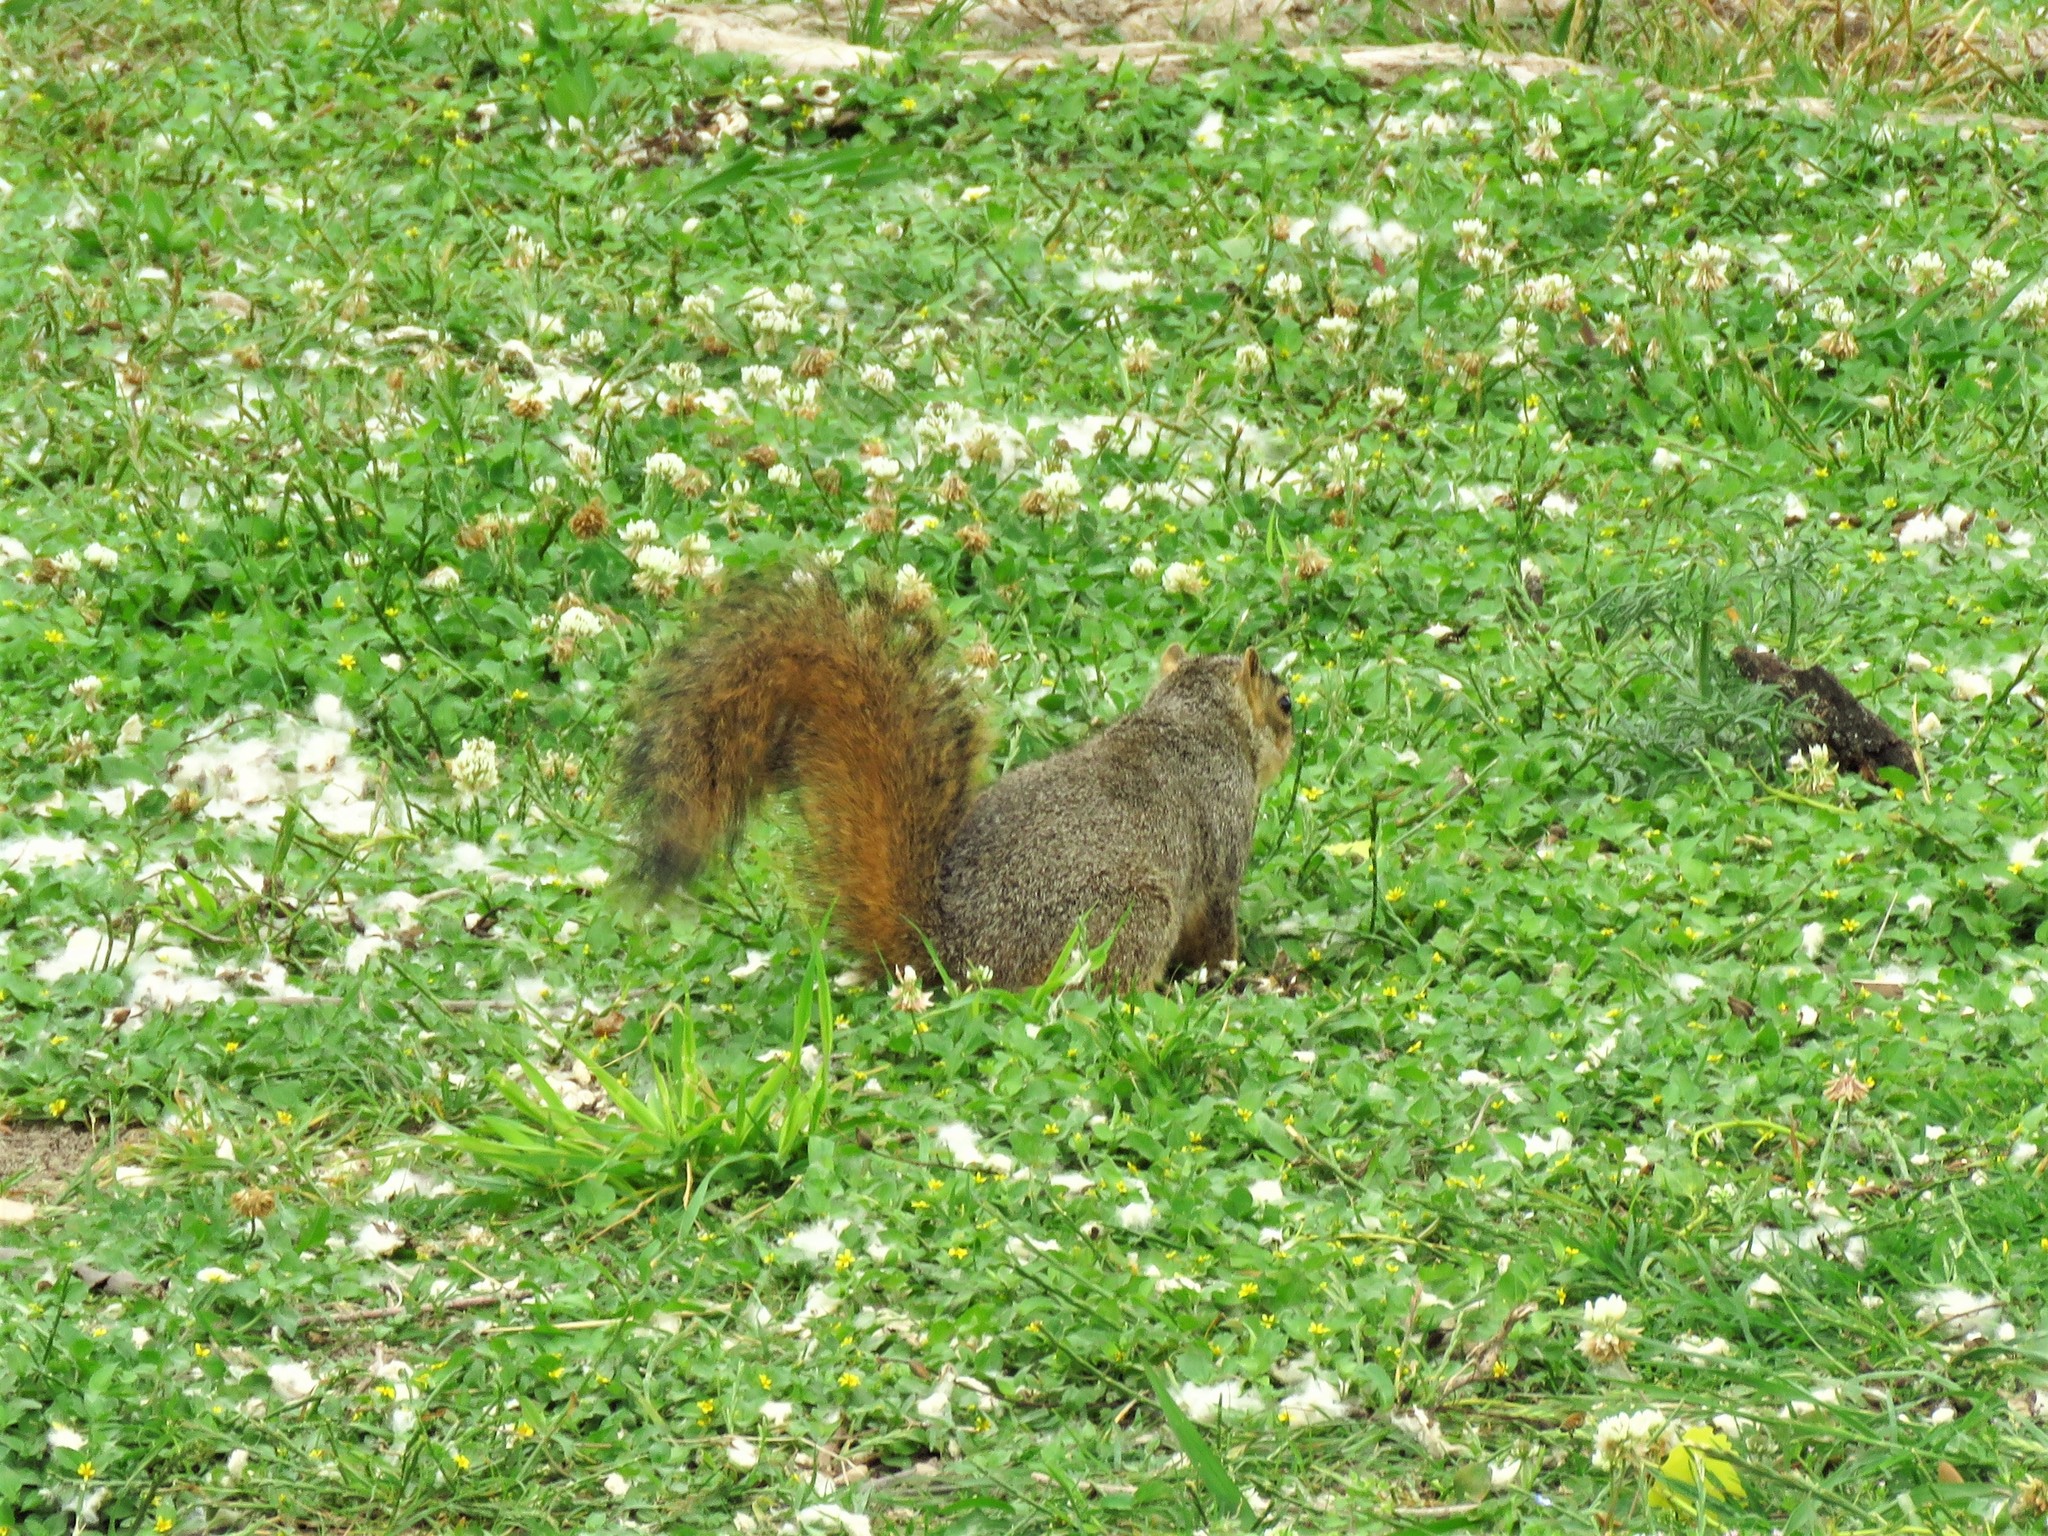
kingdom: Animalia
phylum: Chordata
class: Mammalia
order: Rodentia
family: Sciuridae
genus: Sciurus
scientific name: Sciurus niger
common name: Fox squirrel
